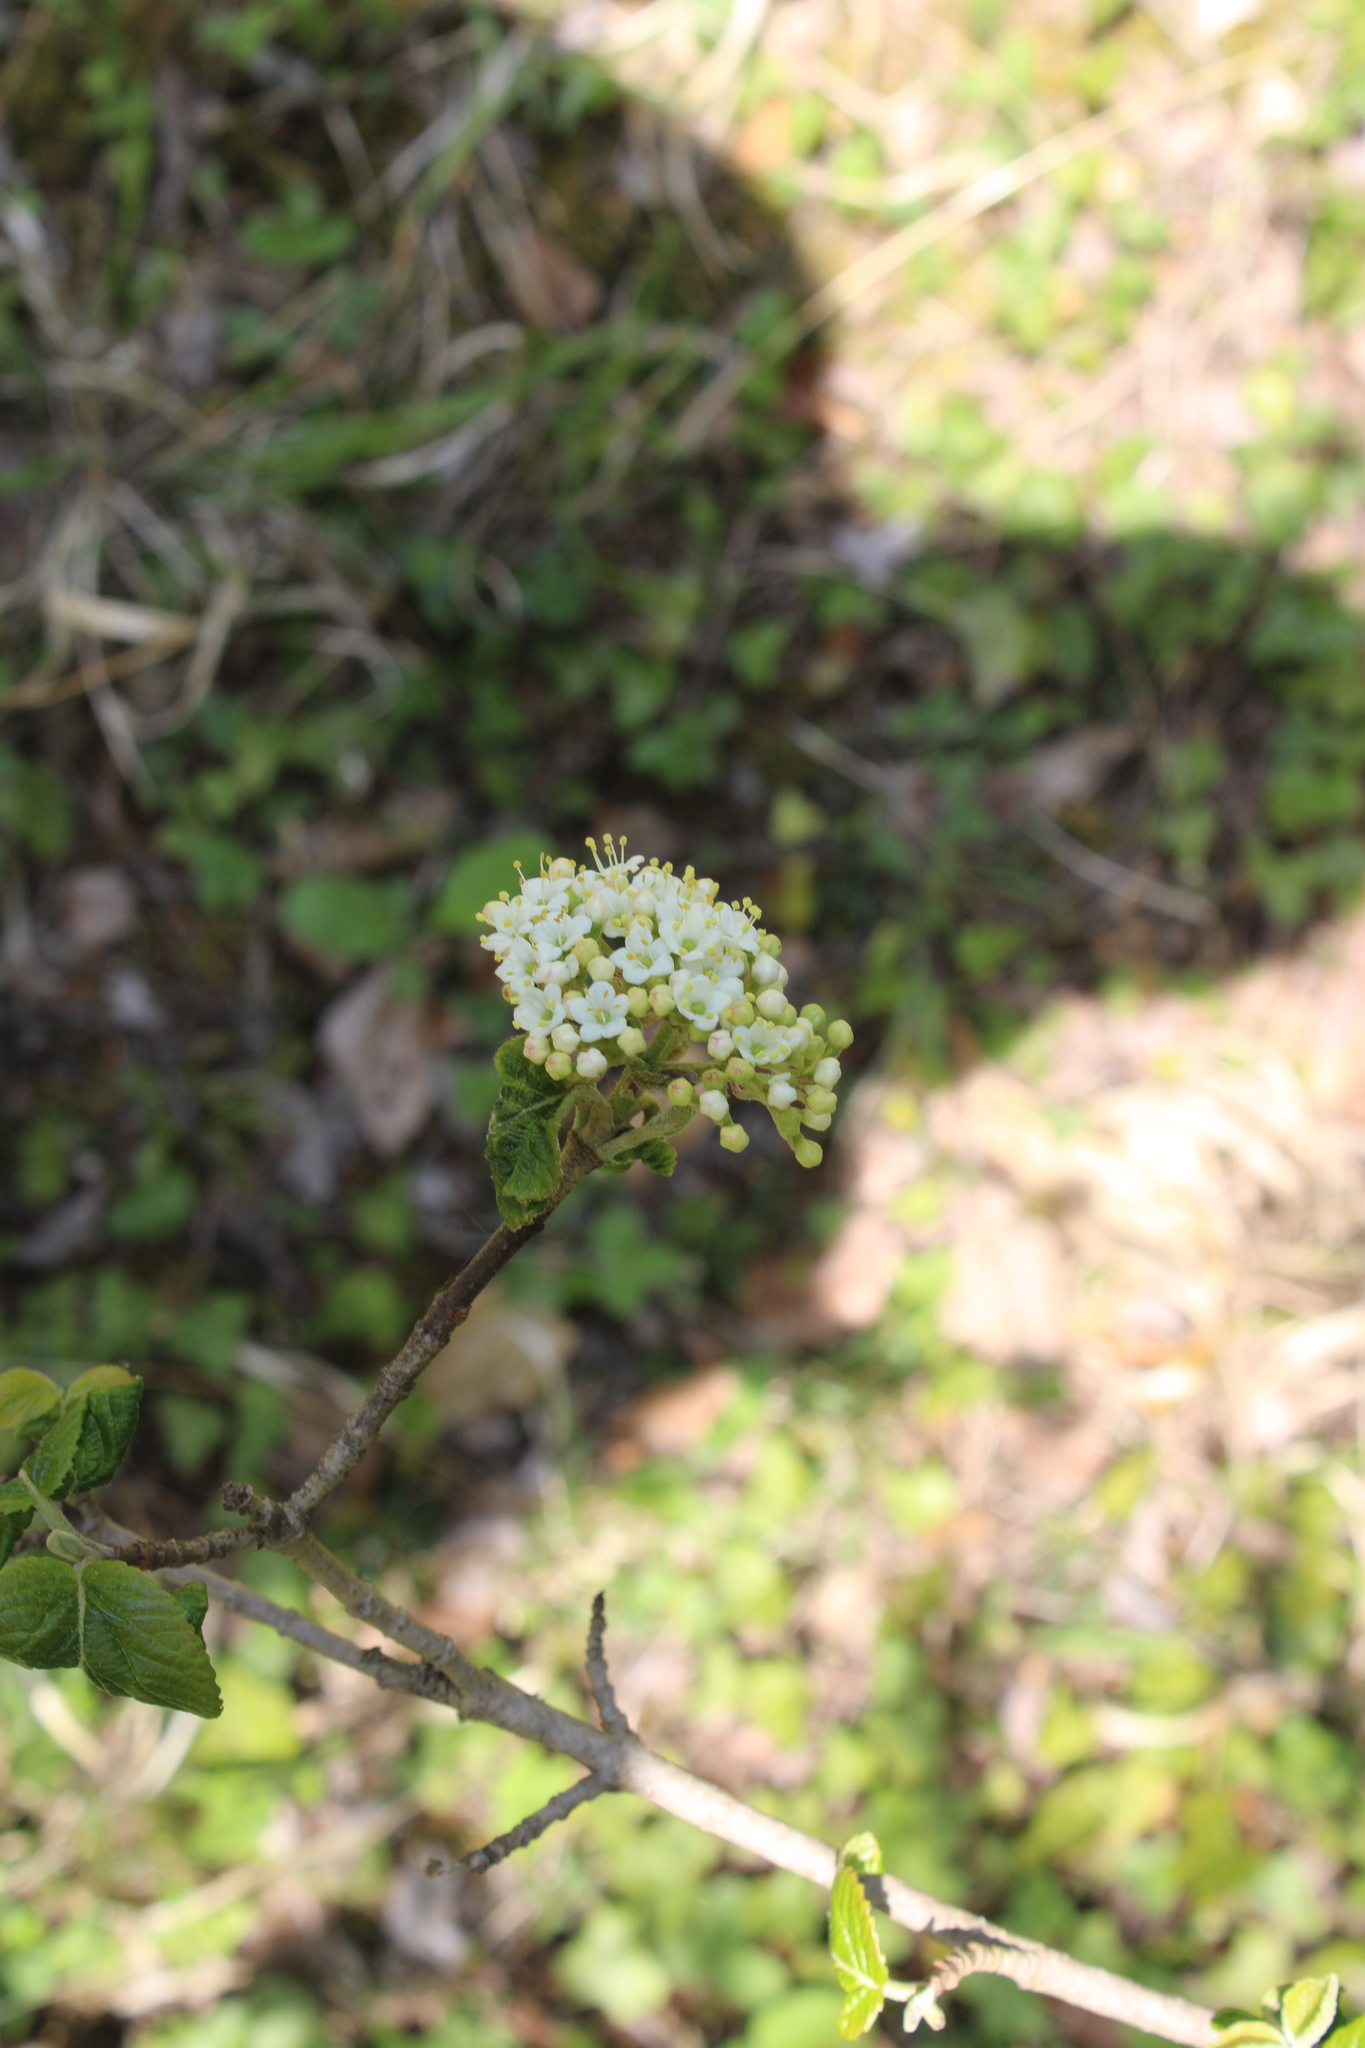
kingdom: Plantae
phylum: Tracheophyta
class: Magnoliopsida
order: Dipsacales
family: Viburnaceae
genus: Viburnum
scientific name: Viburnum lantana
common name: Wayfaring tree
